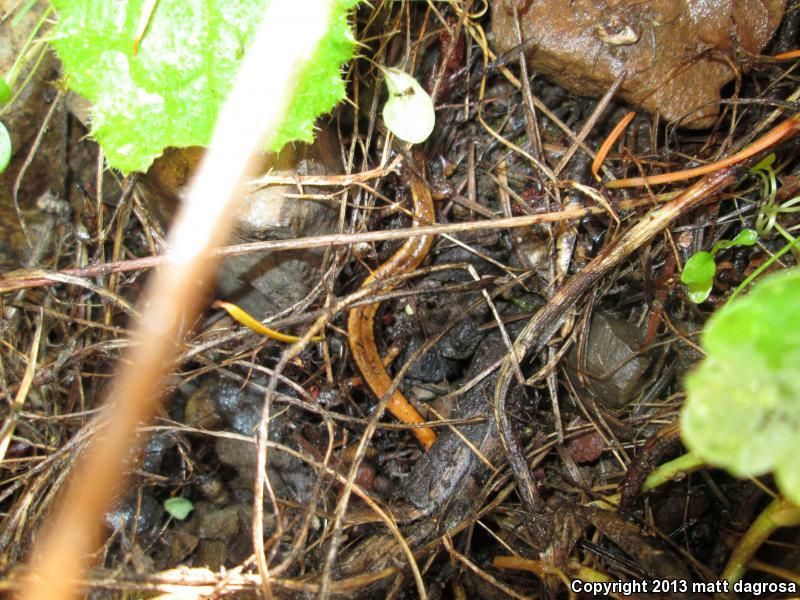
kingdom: Animalia
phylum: Chordata
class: Amphibia
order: Caudata
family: Plethodontidae
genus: Plethodon
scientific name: Plethodon vehiculum
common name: Western red-backed salamander
